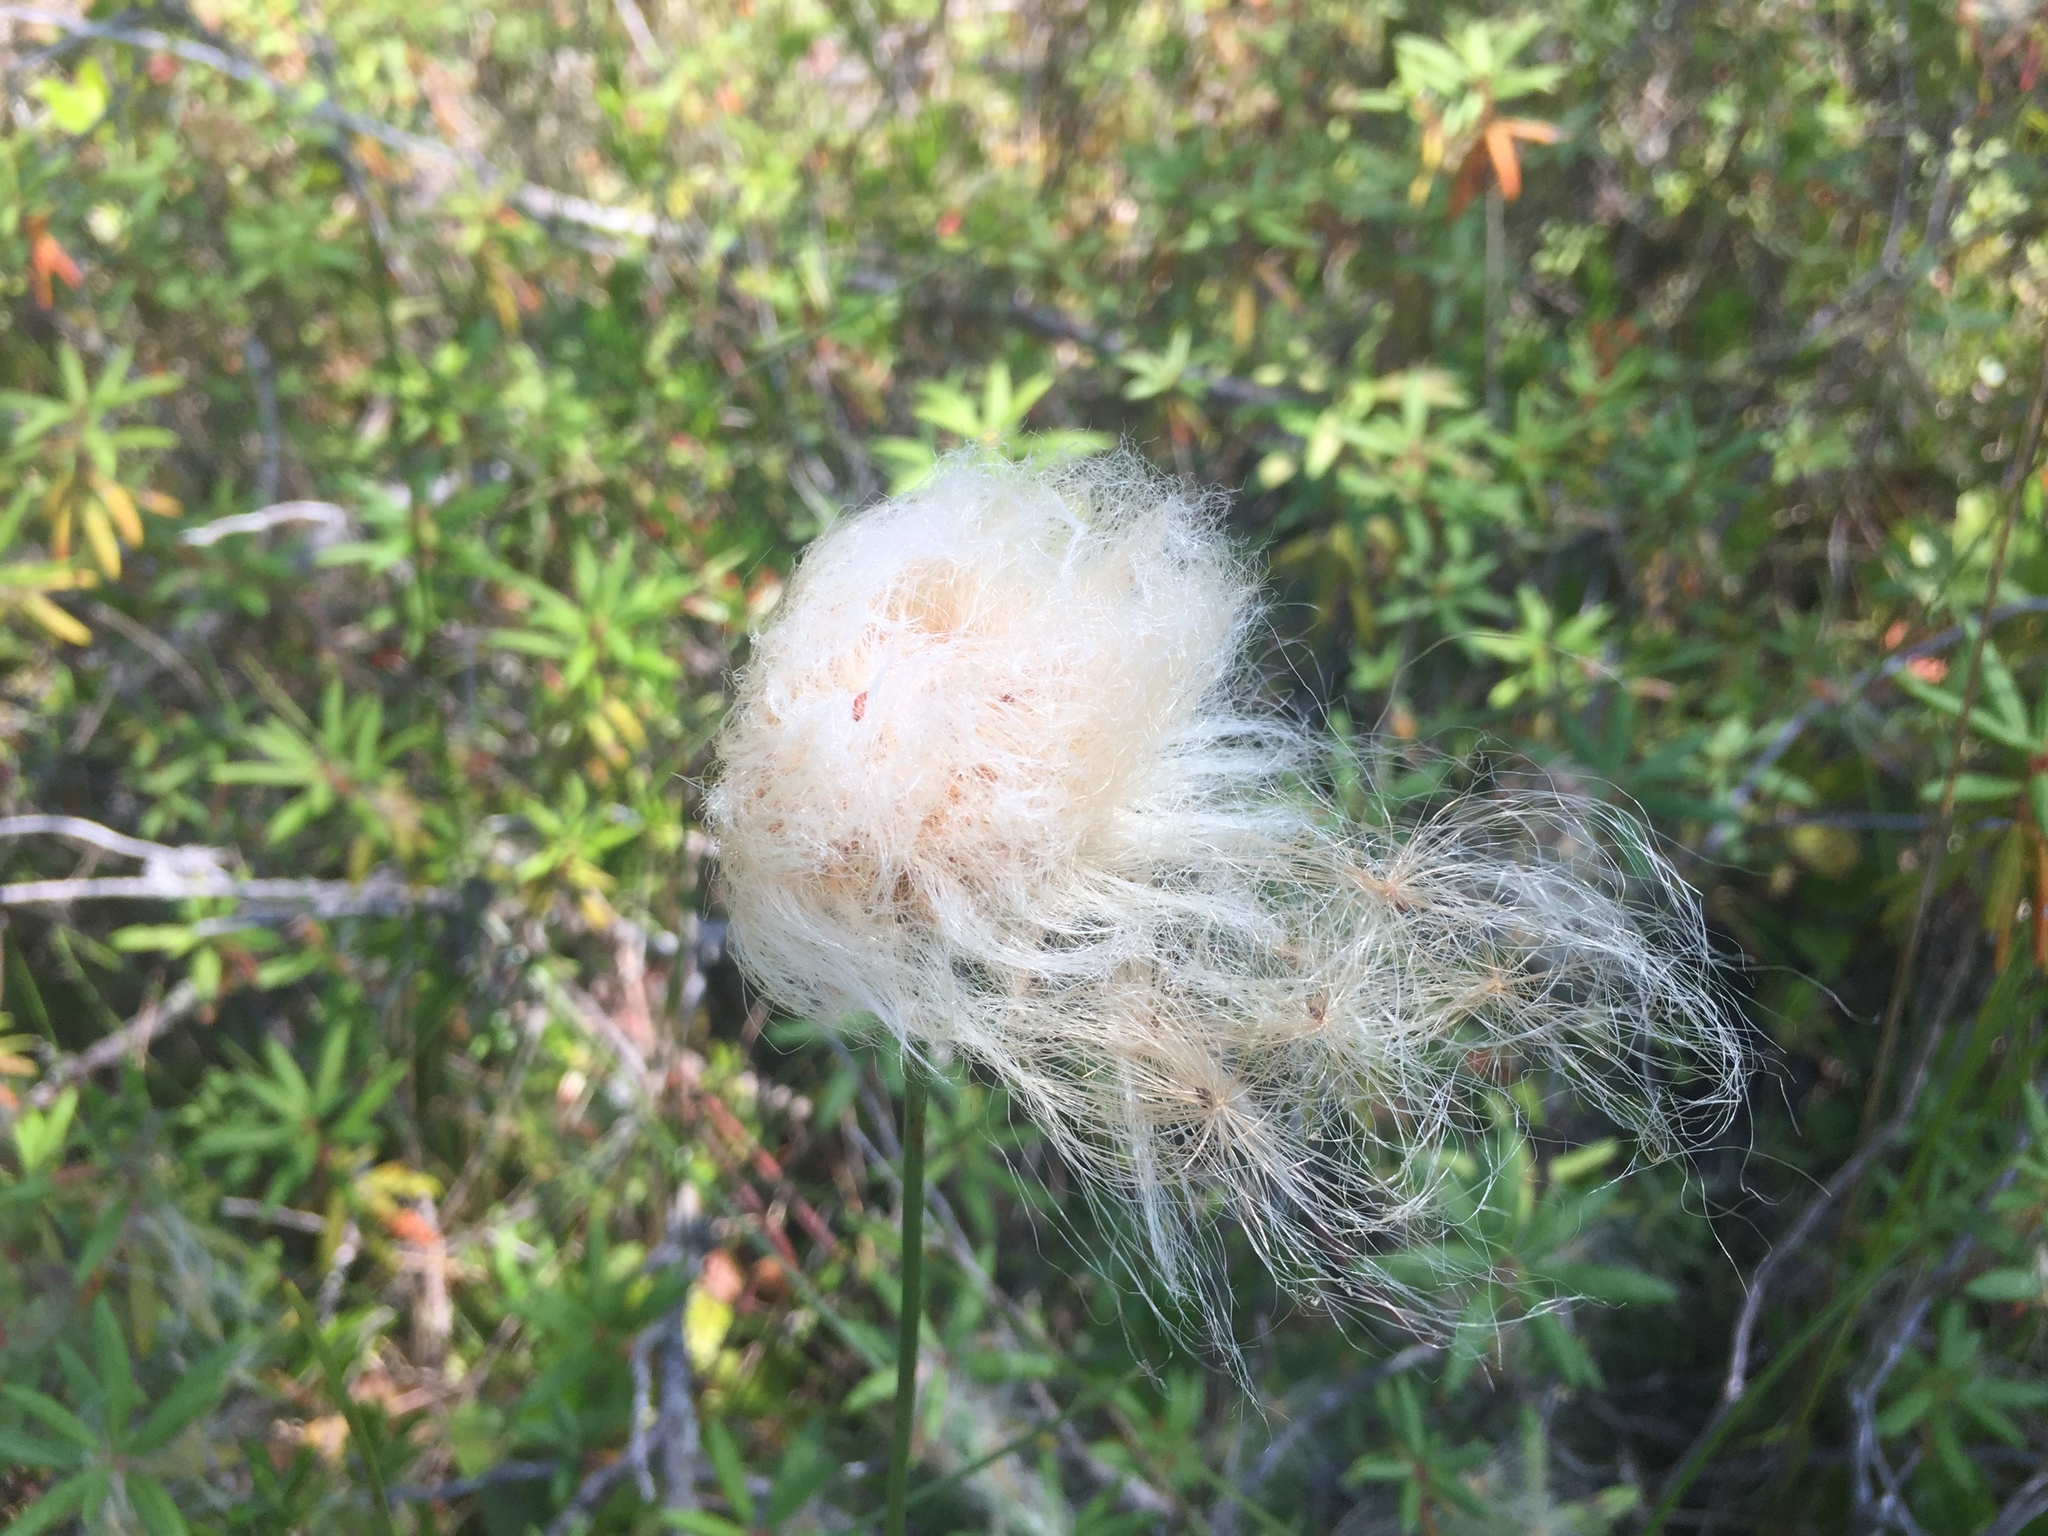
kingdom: Plantae
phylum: Tracheophyta
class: Liliopsida
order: Poales
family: Cyperaceae
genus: Eriophorum
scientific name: Eriophorum chamissonis
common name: Chamisso's cottongrass
